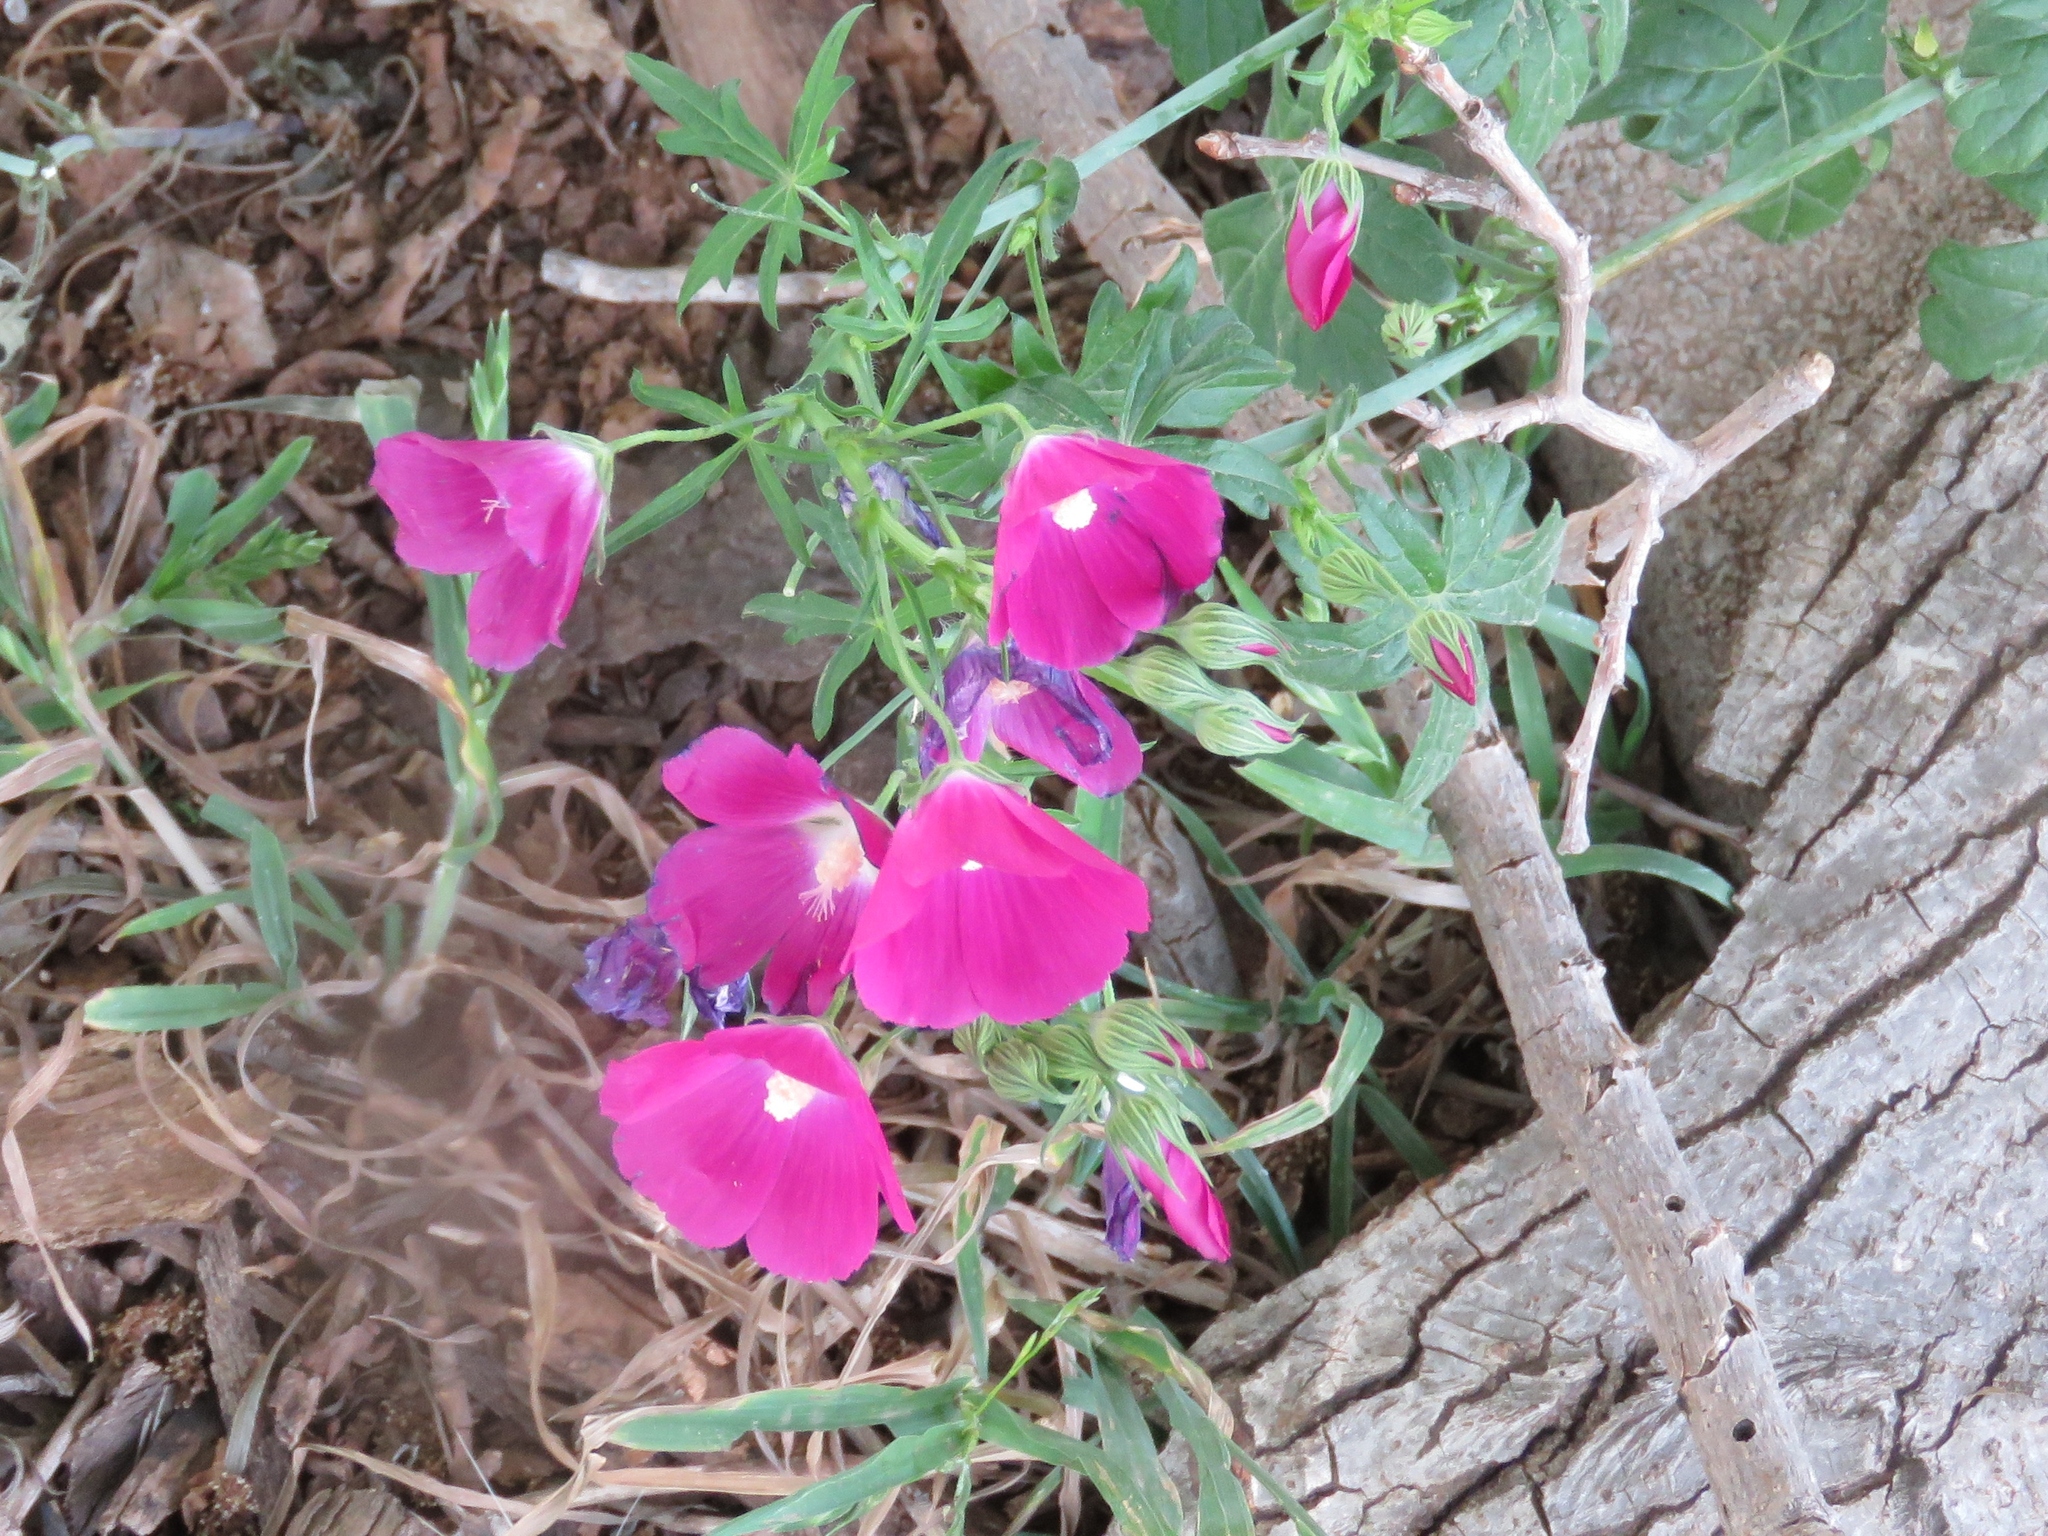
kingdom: Plantae
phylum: Tracheophyta
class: Magnoliopsida
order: Malvales
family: Malvaceae
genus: Callirhoe
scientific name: Callirhoe leiocarpa
